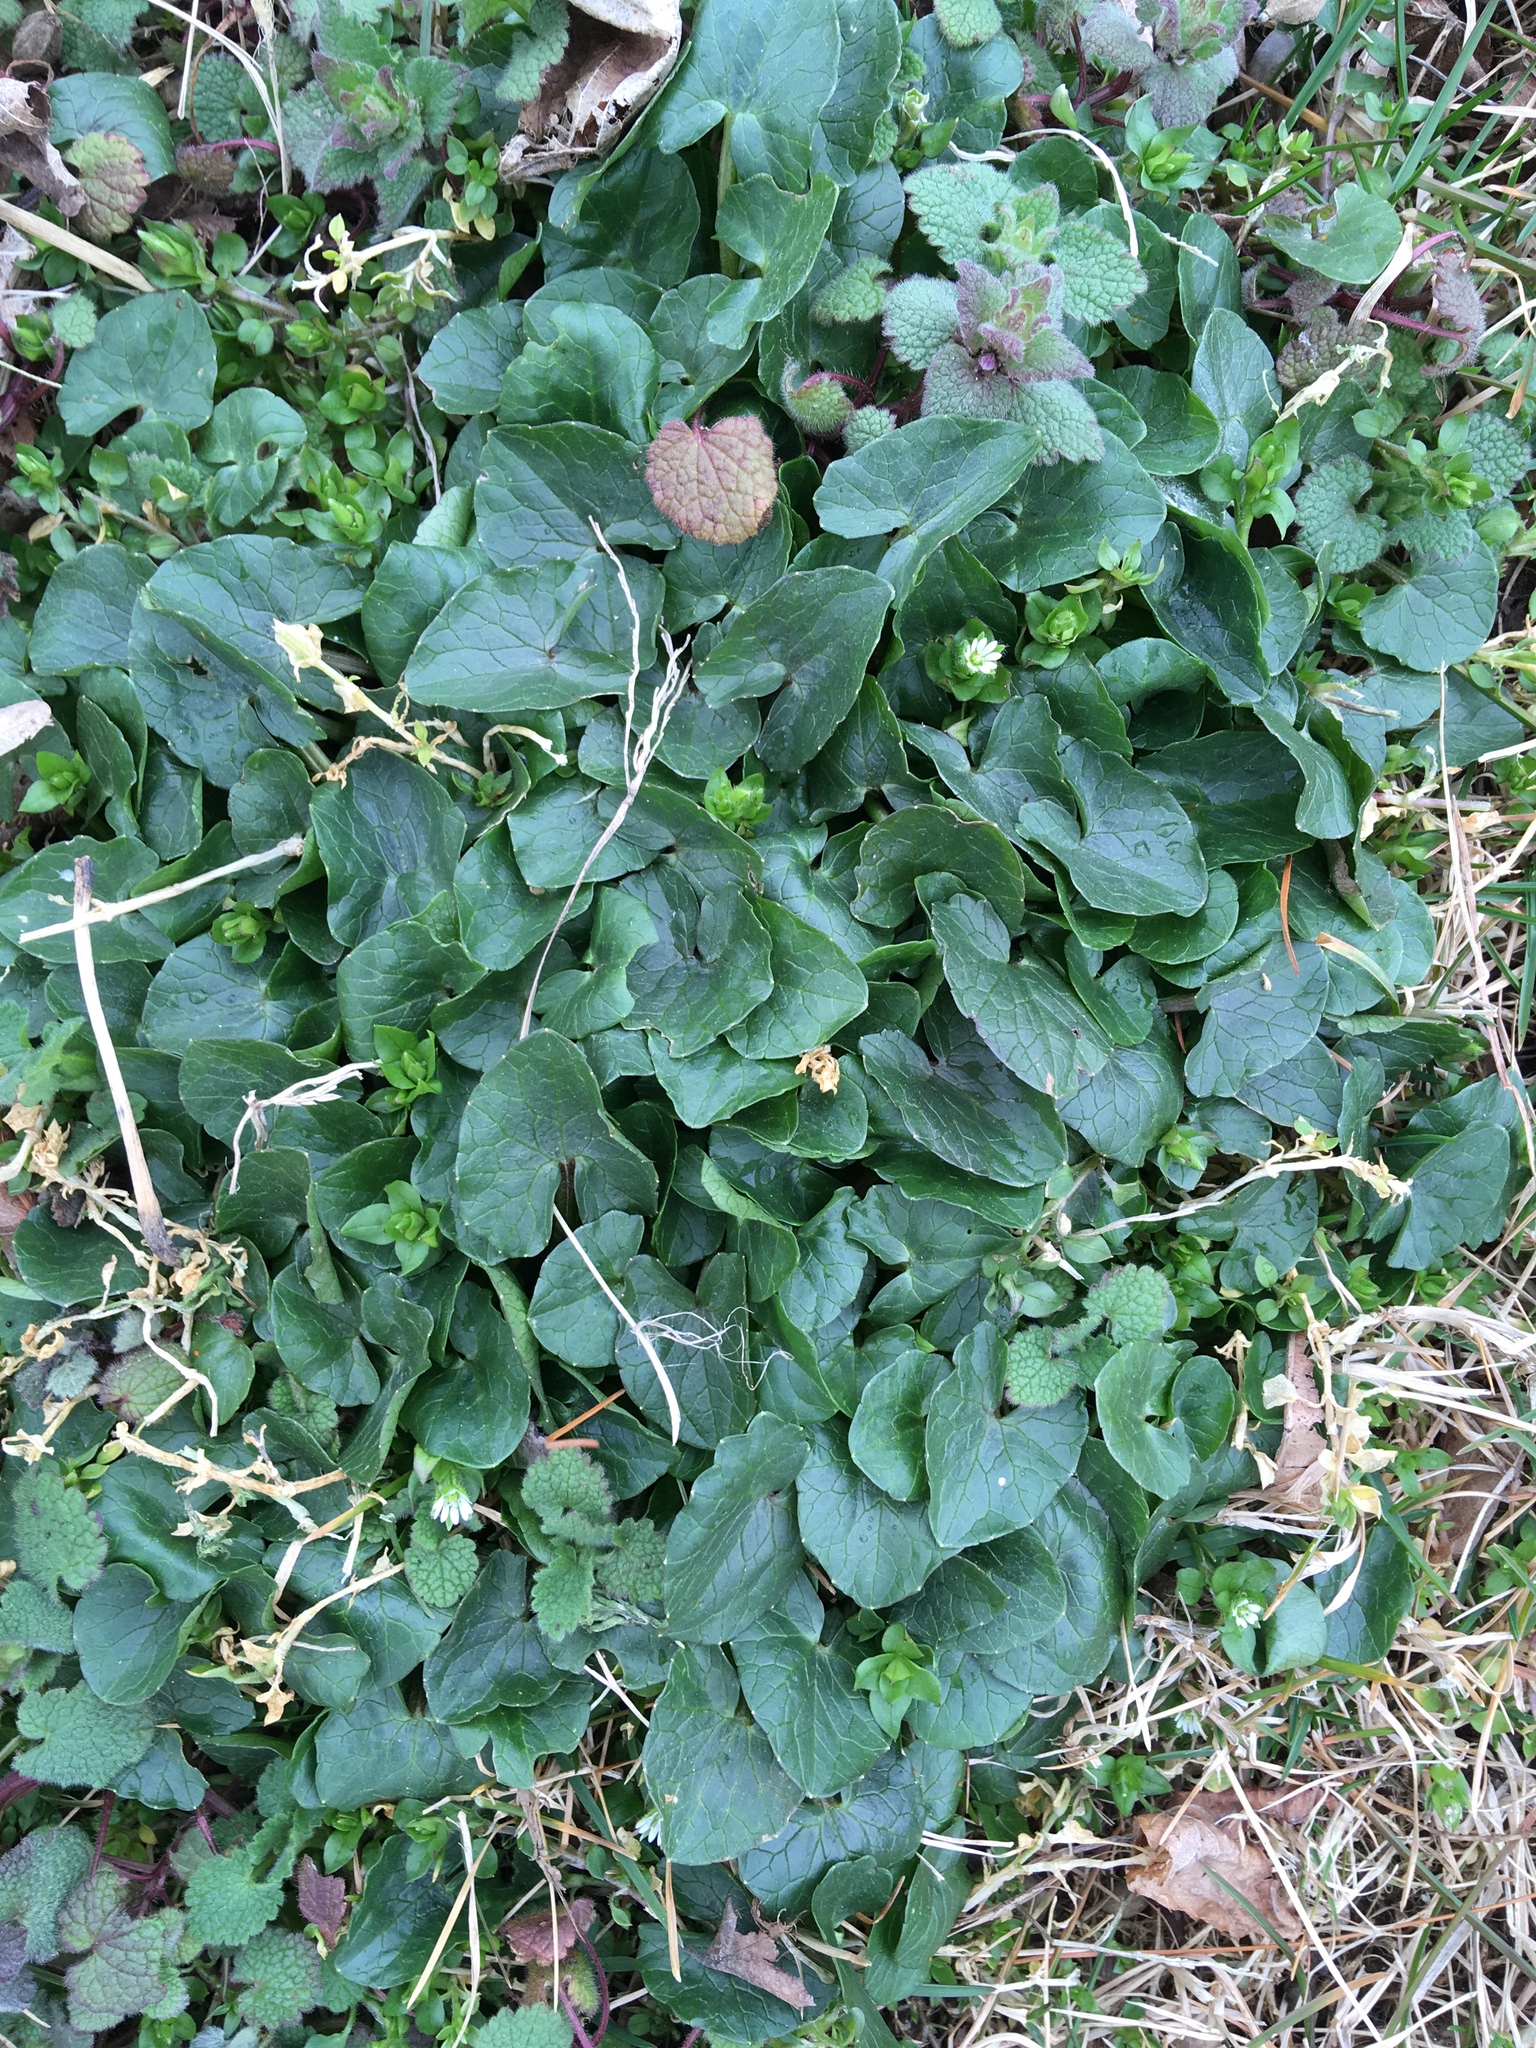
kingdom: Plantae
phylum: Tracheophyta
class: Magnoliopsida
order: Ranunculales
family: Ranunculaceae
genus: Ficaria
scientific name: Ficaria verna
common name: Lesser celandine
